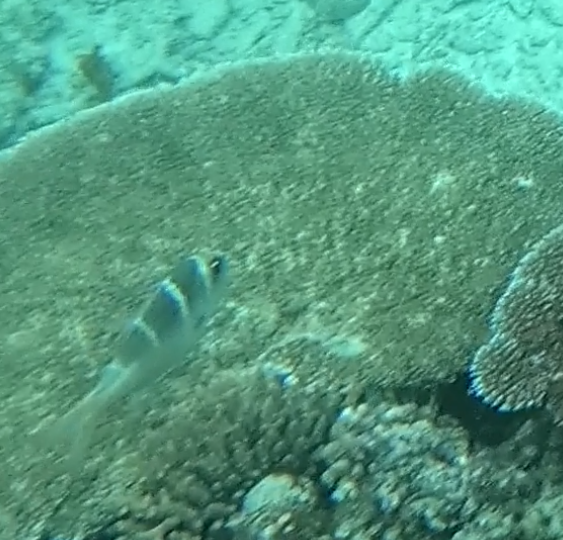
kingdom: Animalia
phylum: Chordata
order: Perciformes
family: Lethrinidae
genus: Monotaxis
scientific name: Monotaxis grandoculis
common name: Bigeye emperor
